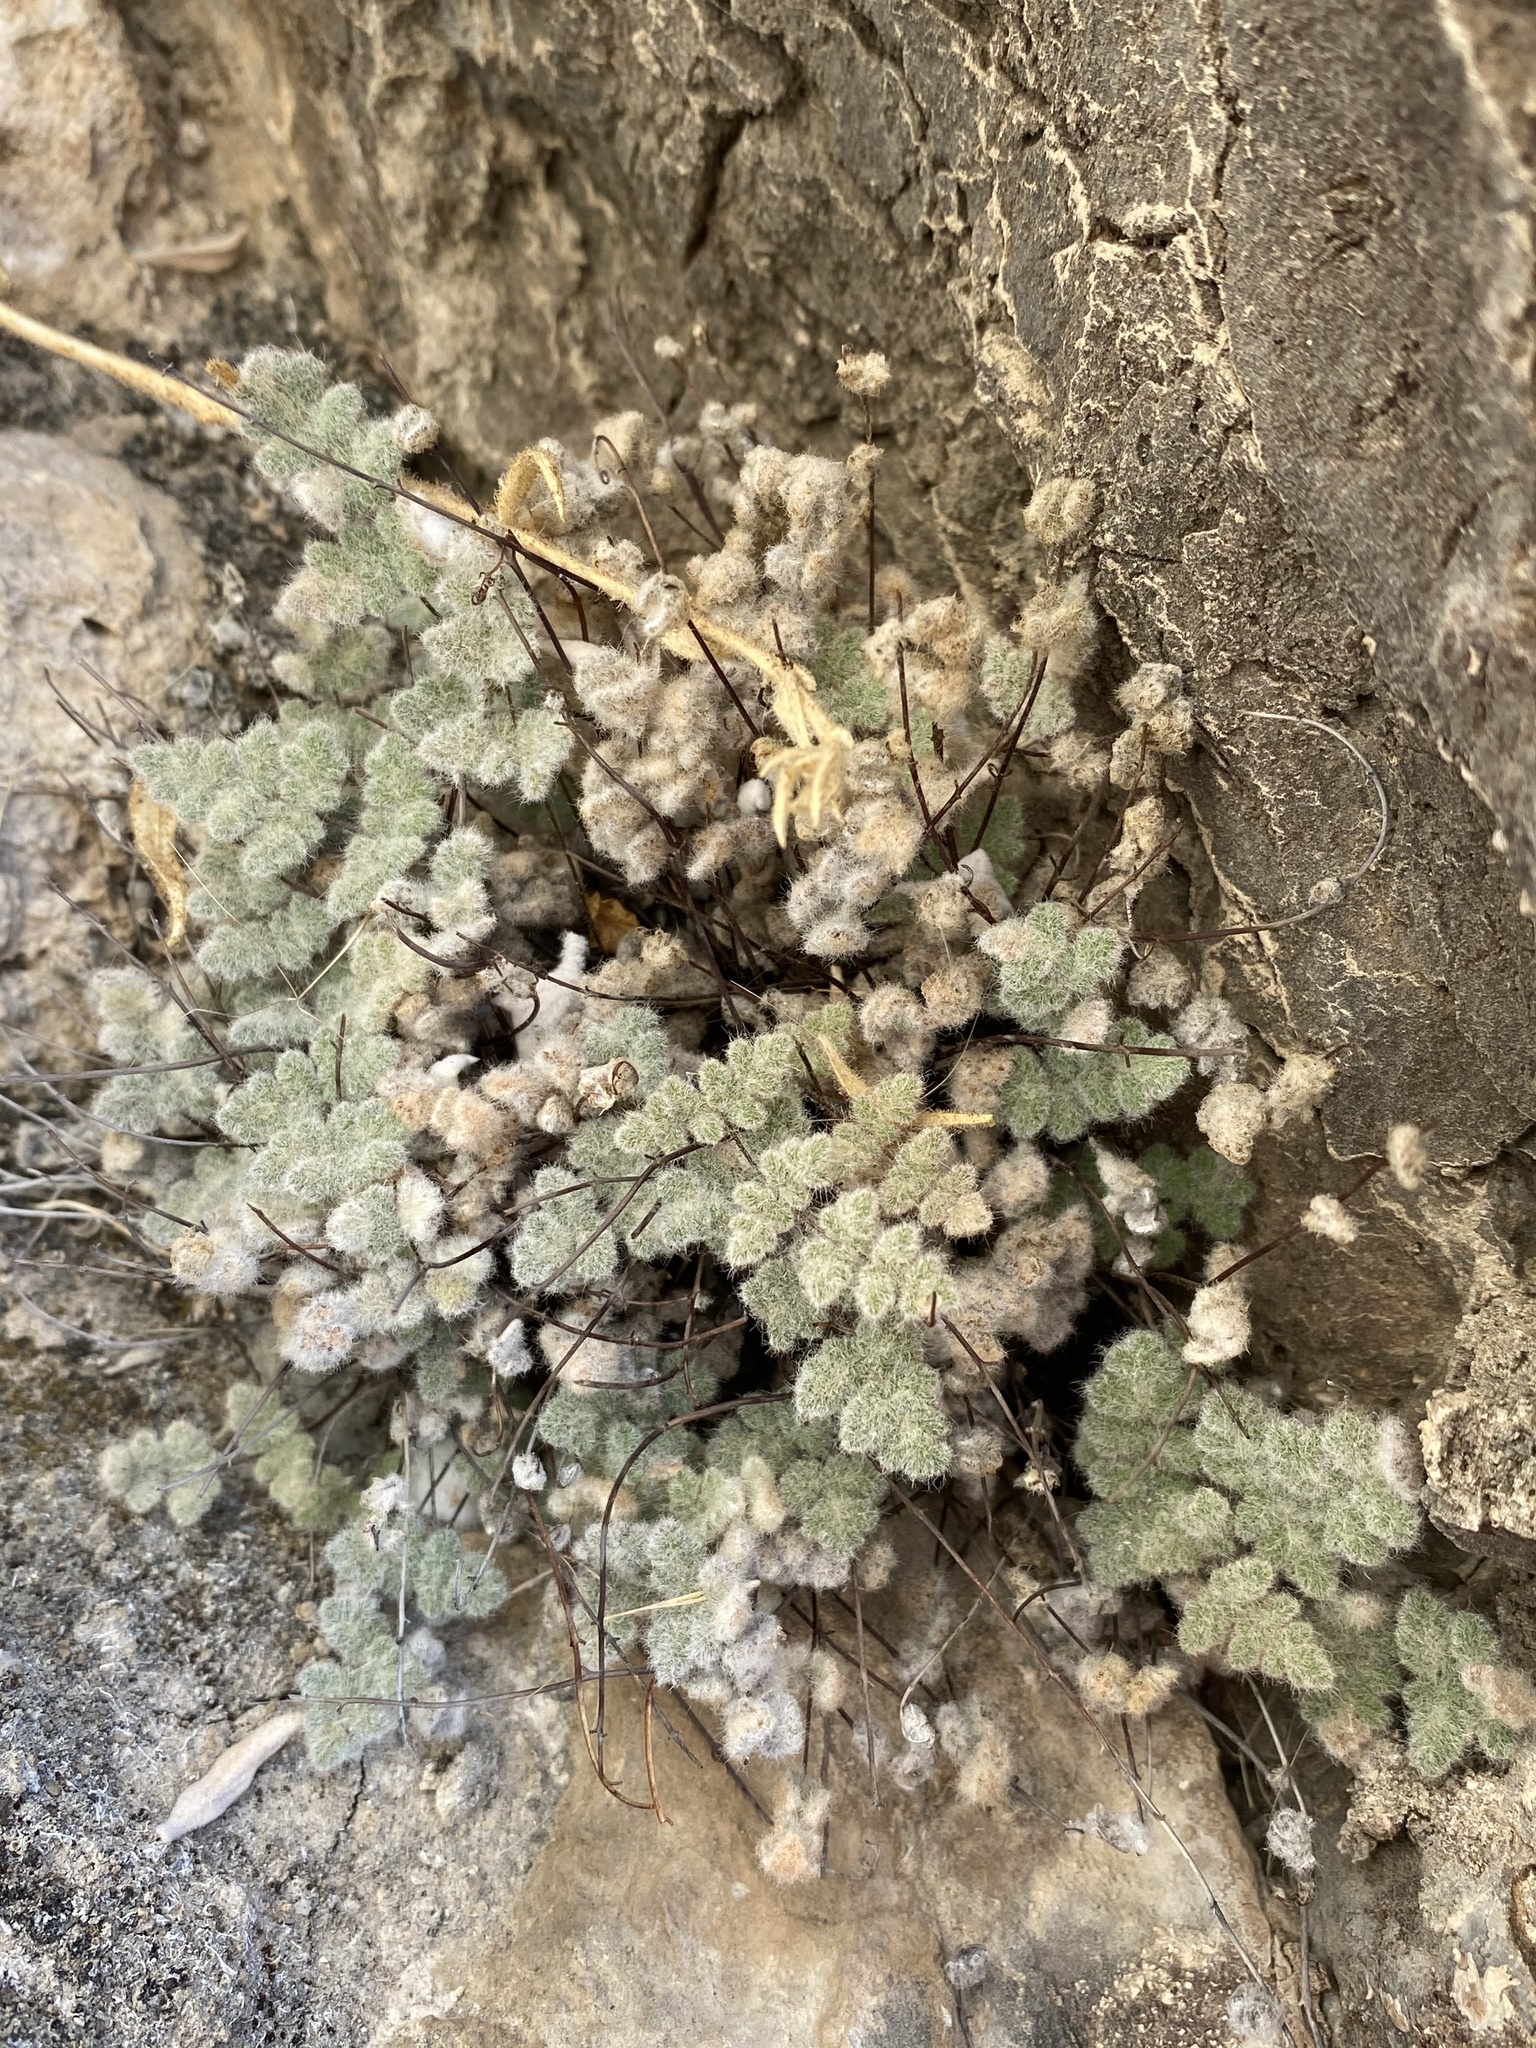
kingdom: Plantae
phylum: Tracheophyta
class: Polypodiopsida
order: Polypodiales
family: Pteridaceae
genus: Myriopteris
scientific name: Myriopteris parryi
